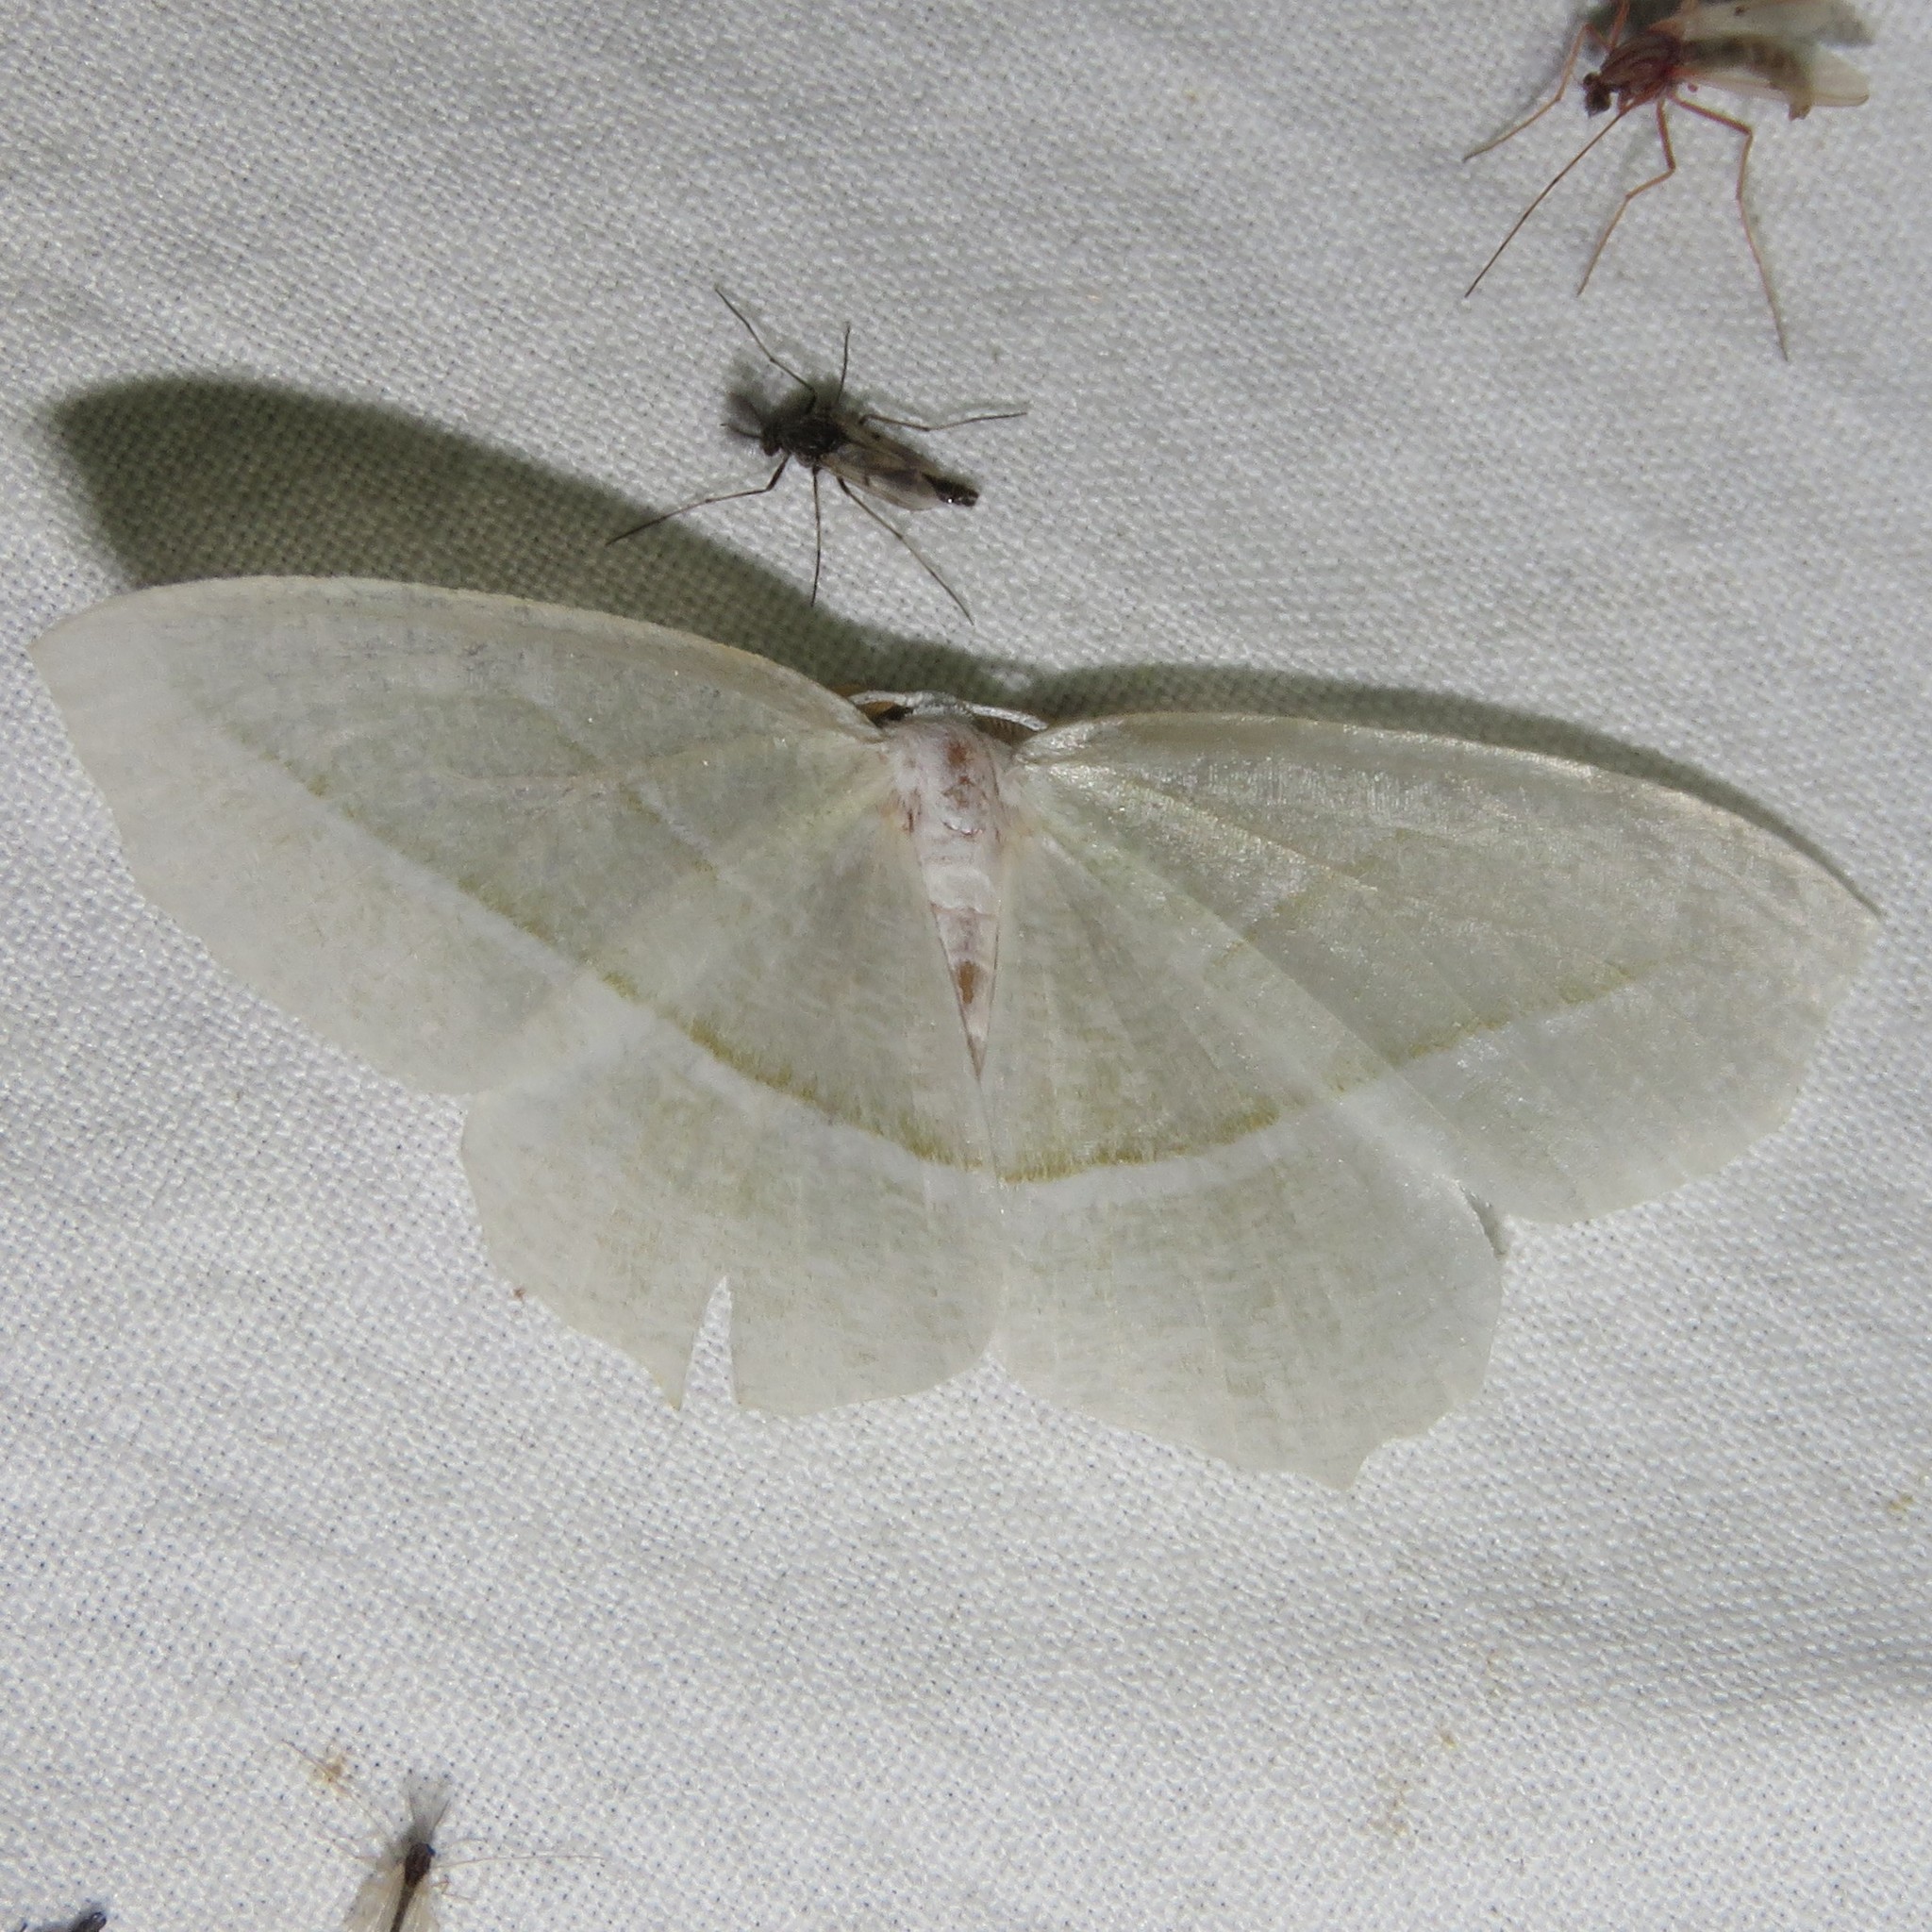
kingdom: Animalia
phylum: Arthropoda
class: Insecta
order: Lepidoptera
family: Geometridae
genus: Campaea
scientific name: Campaea perlata
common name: Fringed looper
